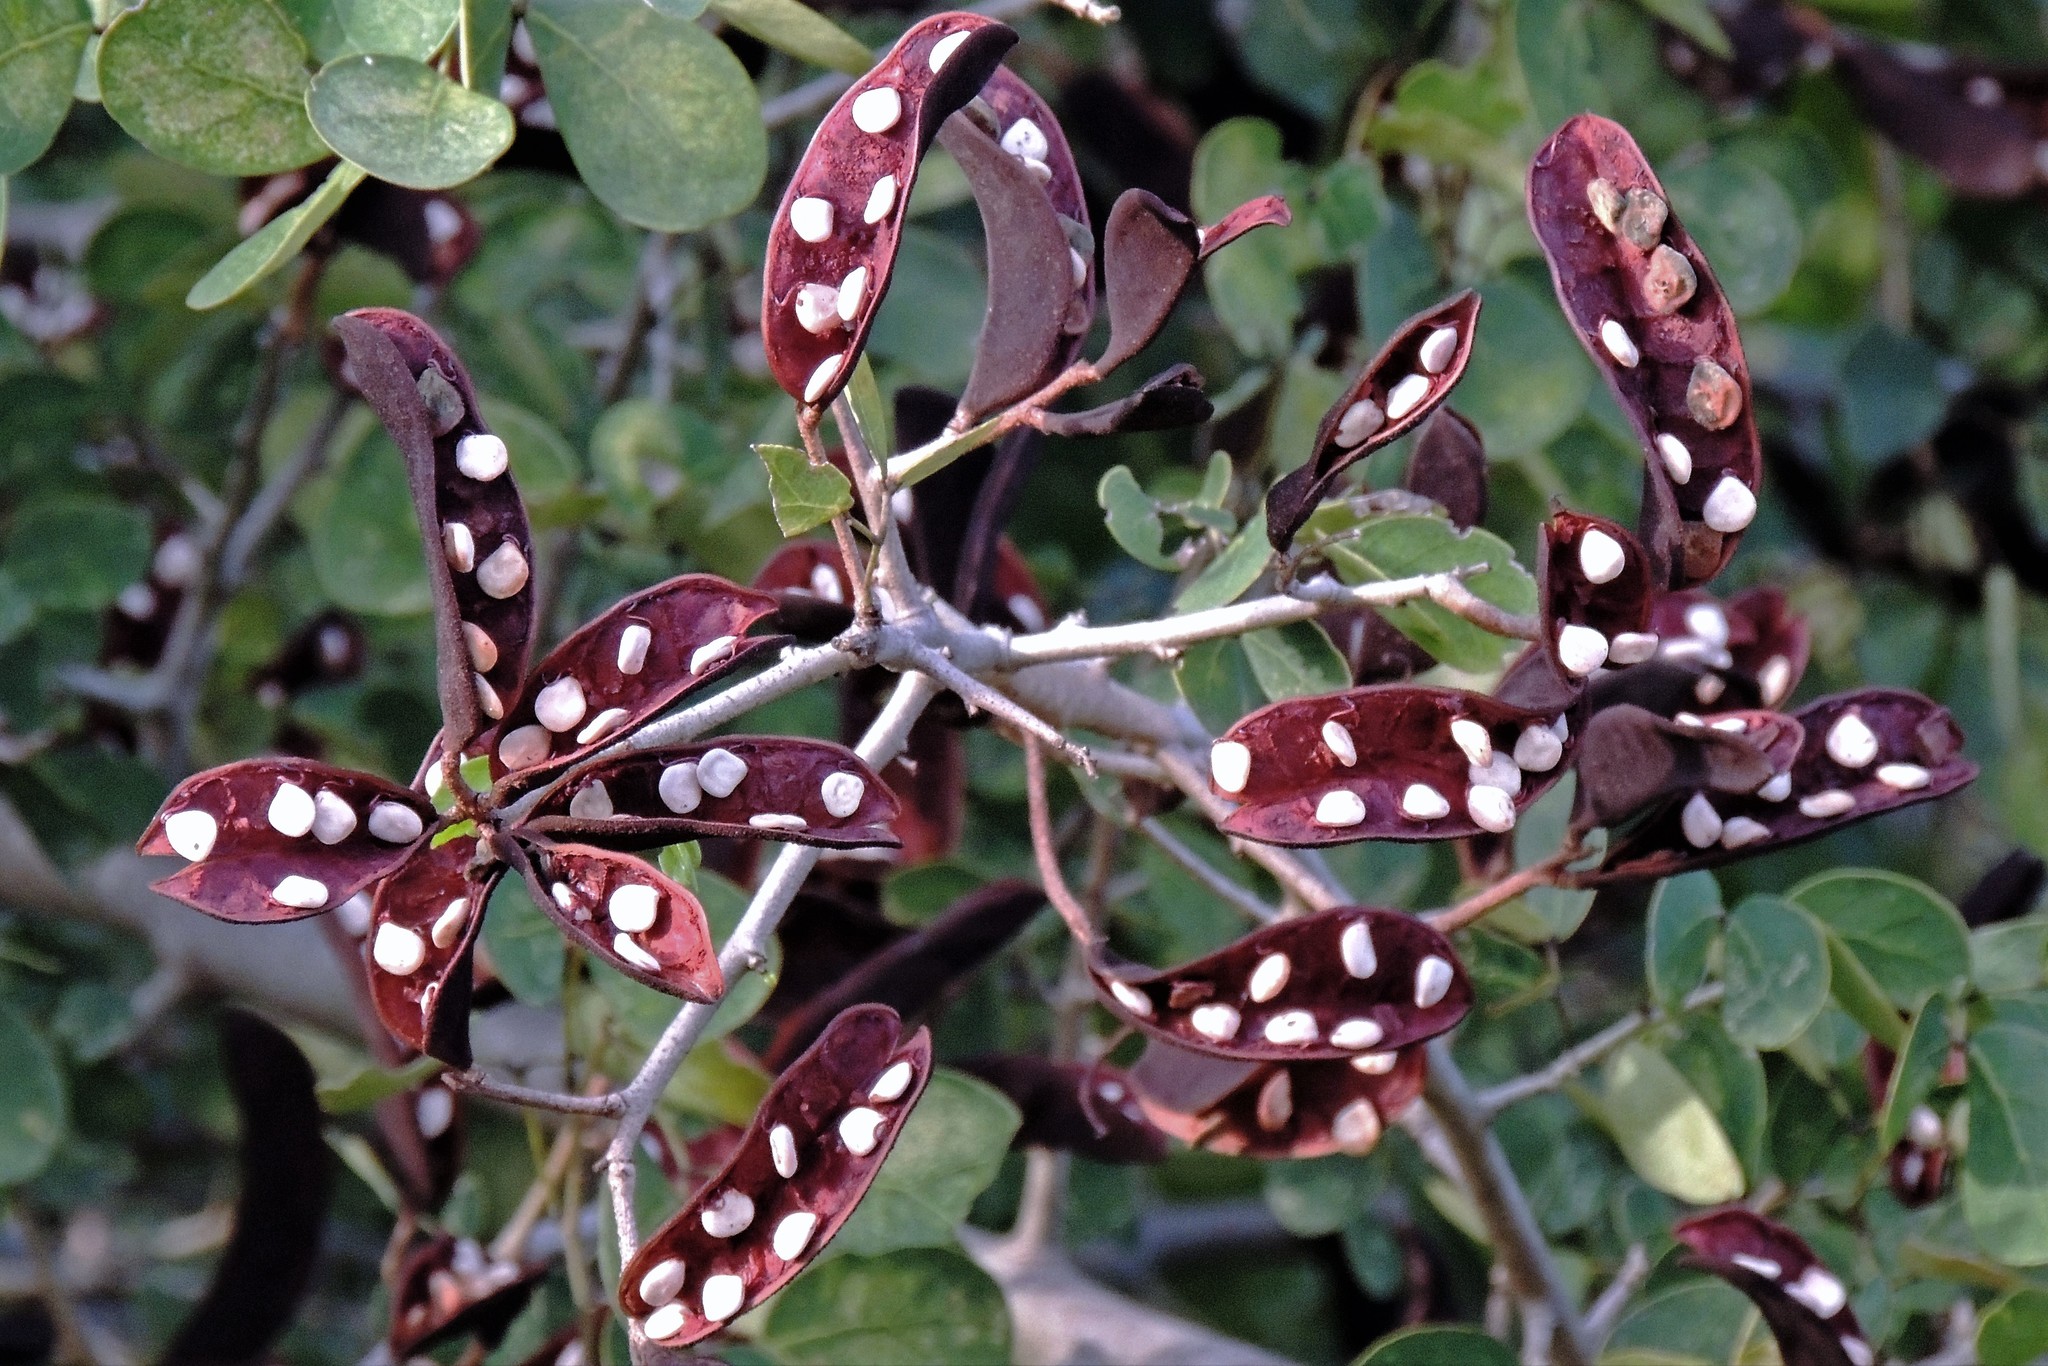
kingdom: Plantae
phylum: Tracheophyta
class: Magnoliopsida
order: Fabales
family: Fabaceae
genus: Microlobius
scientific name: Microlobius foetidus
